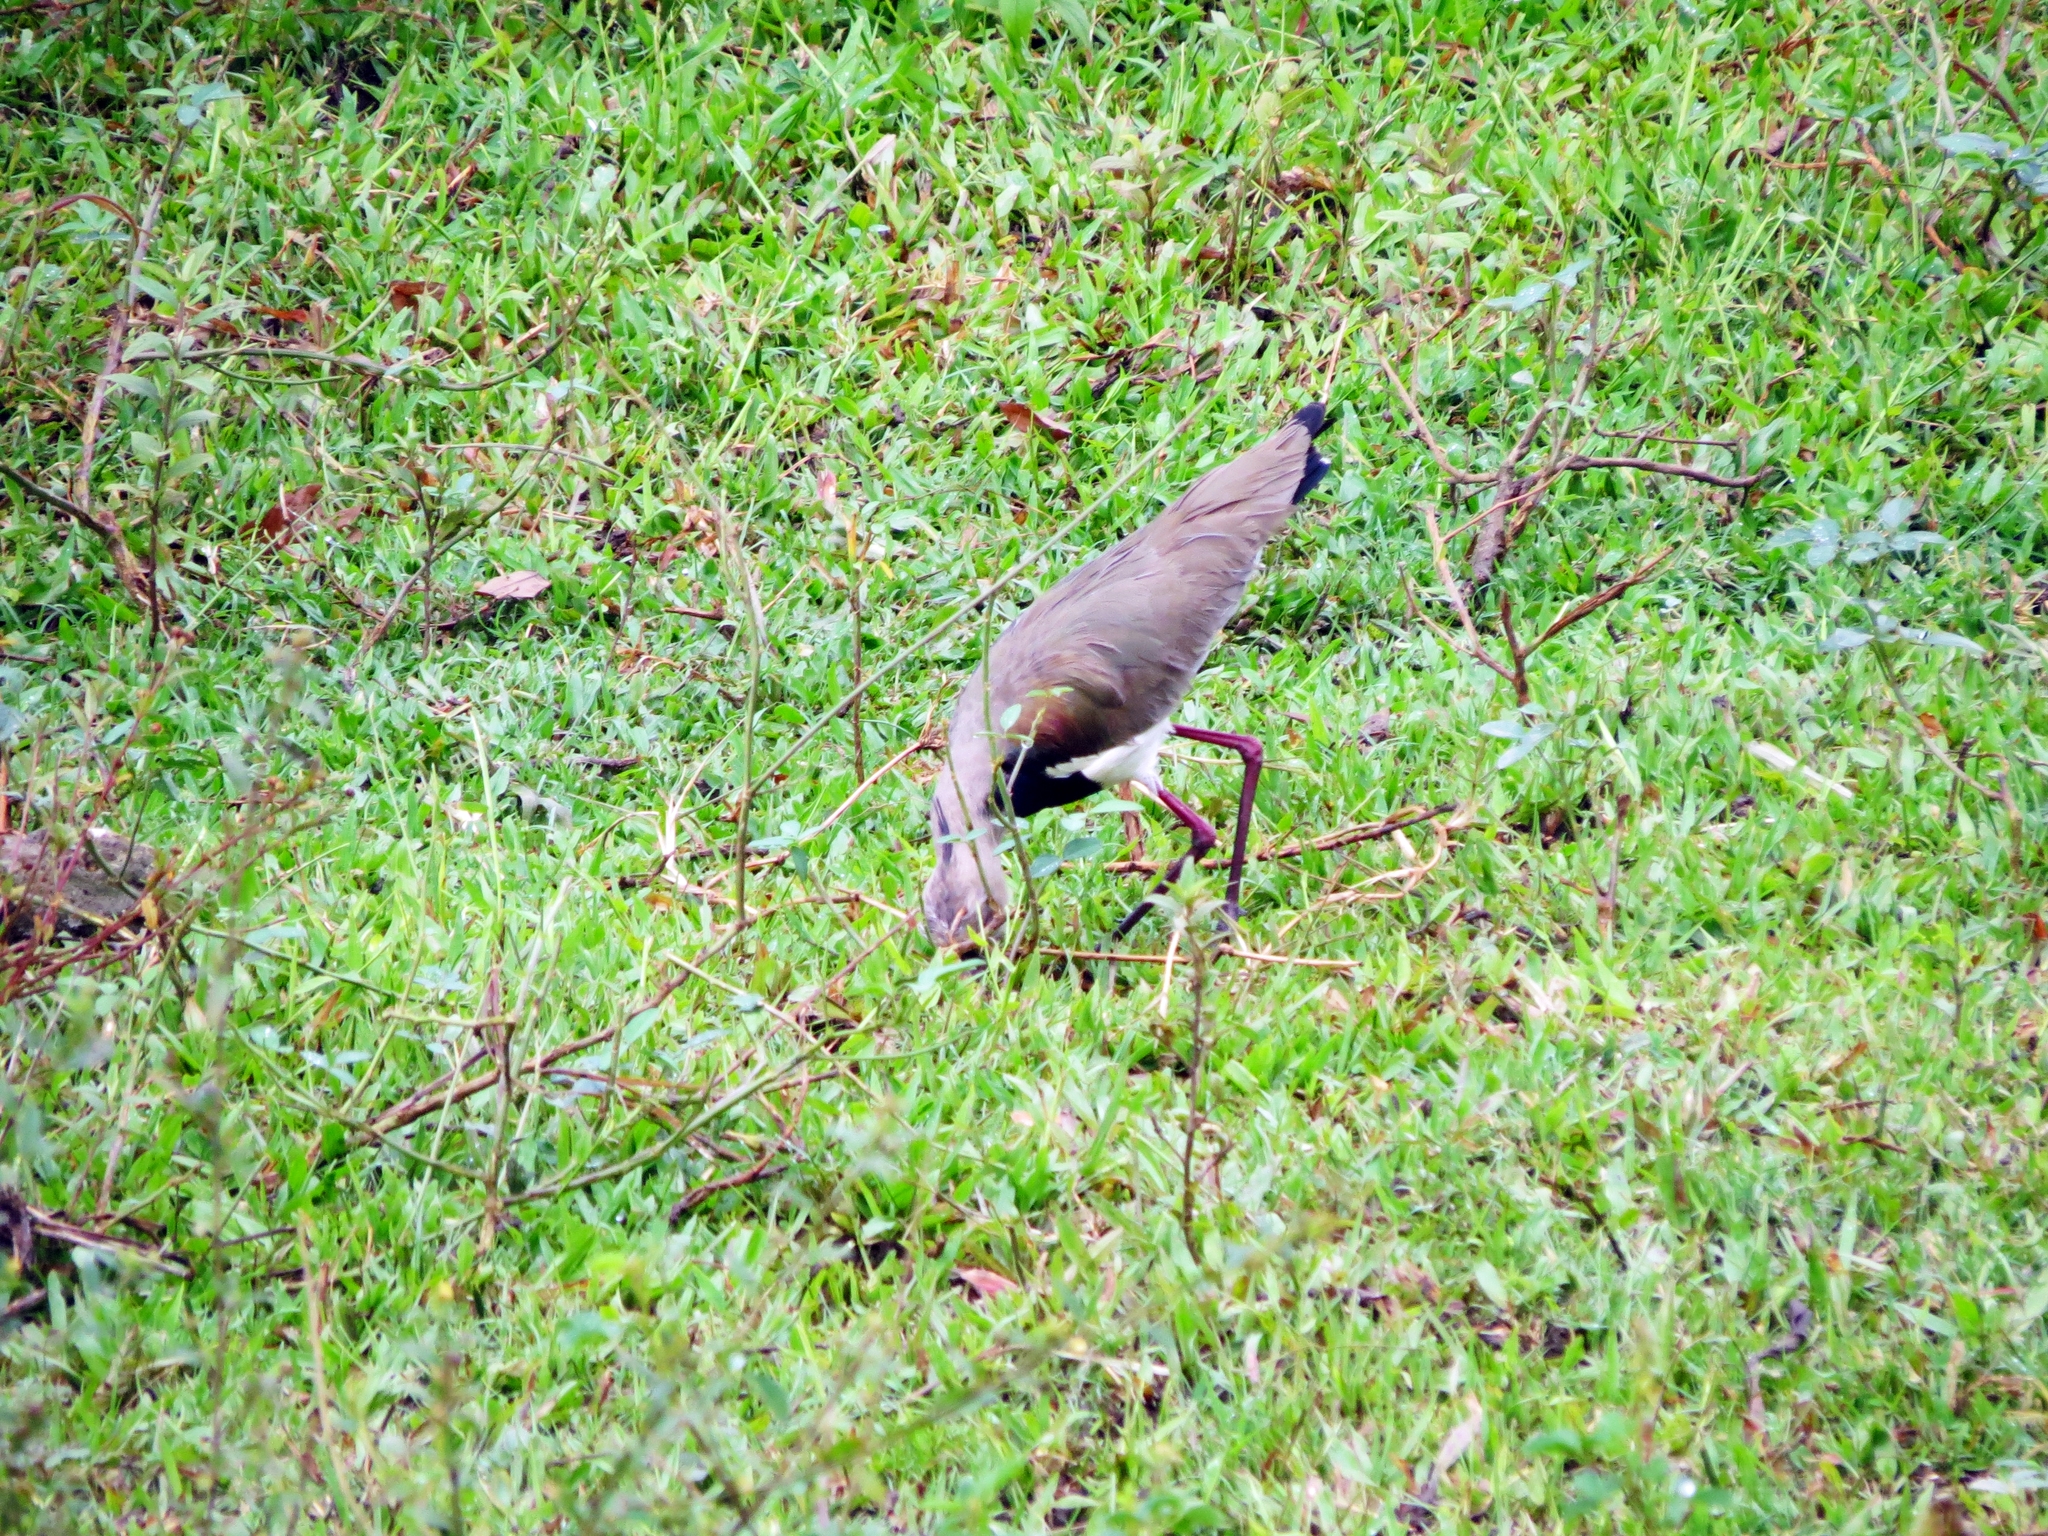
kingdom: Animalia
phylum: Chordata
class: Aves
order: Charadriiformes
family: Charadriidae
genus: Vanellus
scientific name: Vanellus chilensis
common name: Southern lapwing
